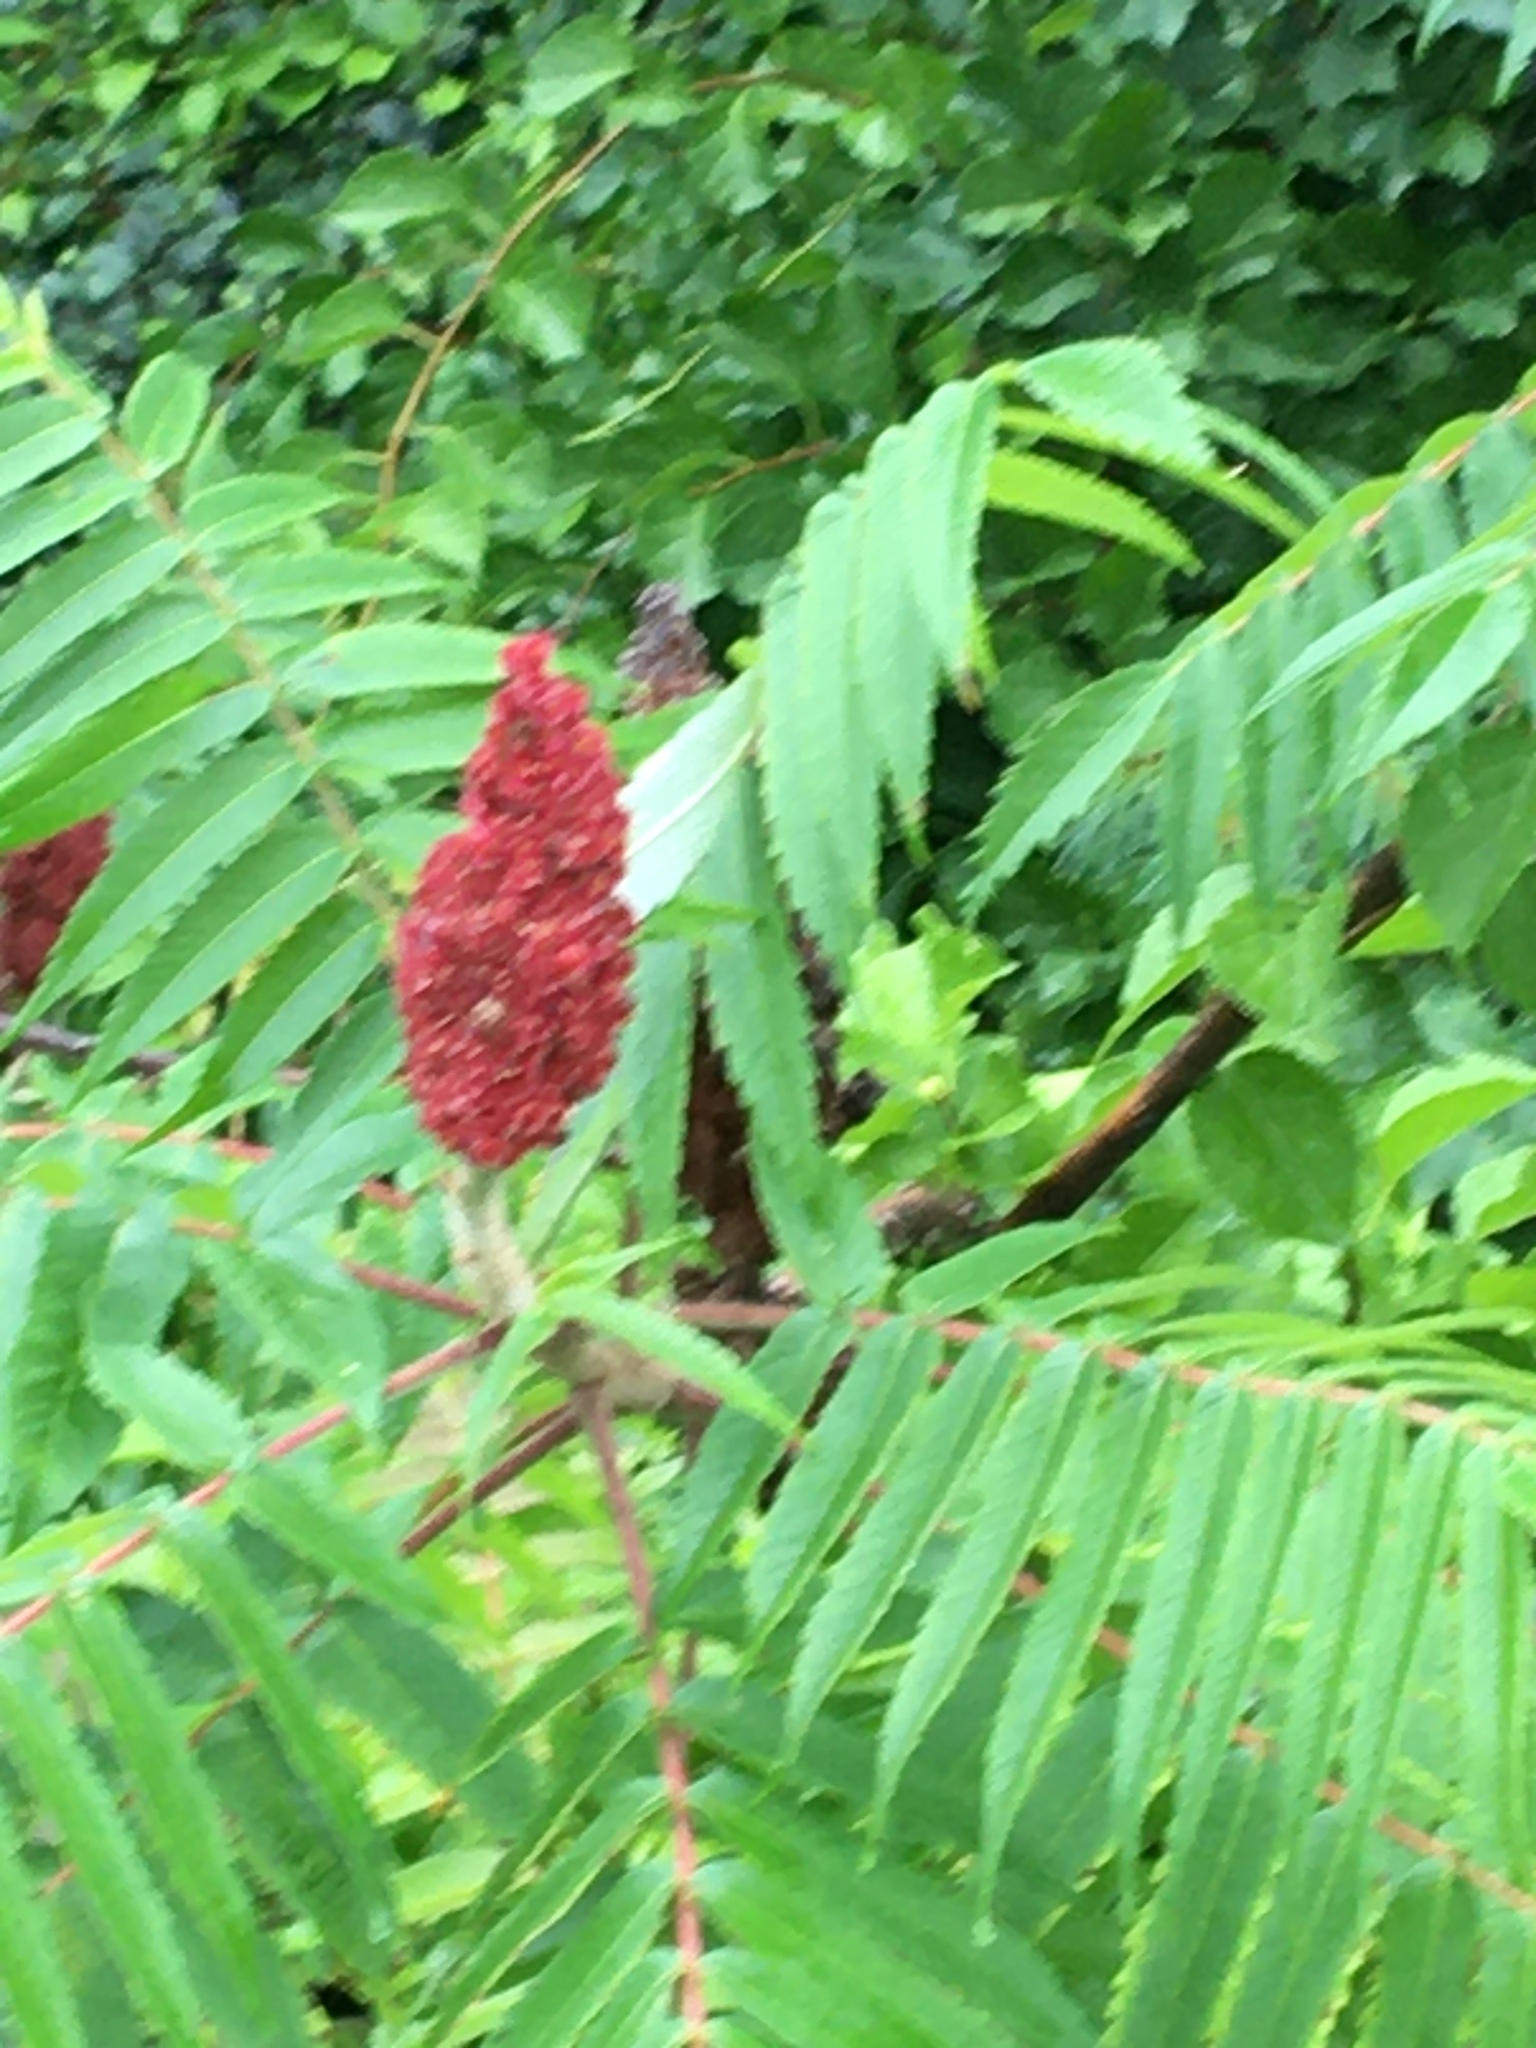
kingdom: Plantae
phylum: Tracheophyta
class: Magnoliopsida
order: Sapindales
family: Anacardiaceae
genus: Rhus
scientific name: Rhus typhina
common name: Staghorn sumac
